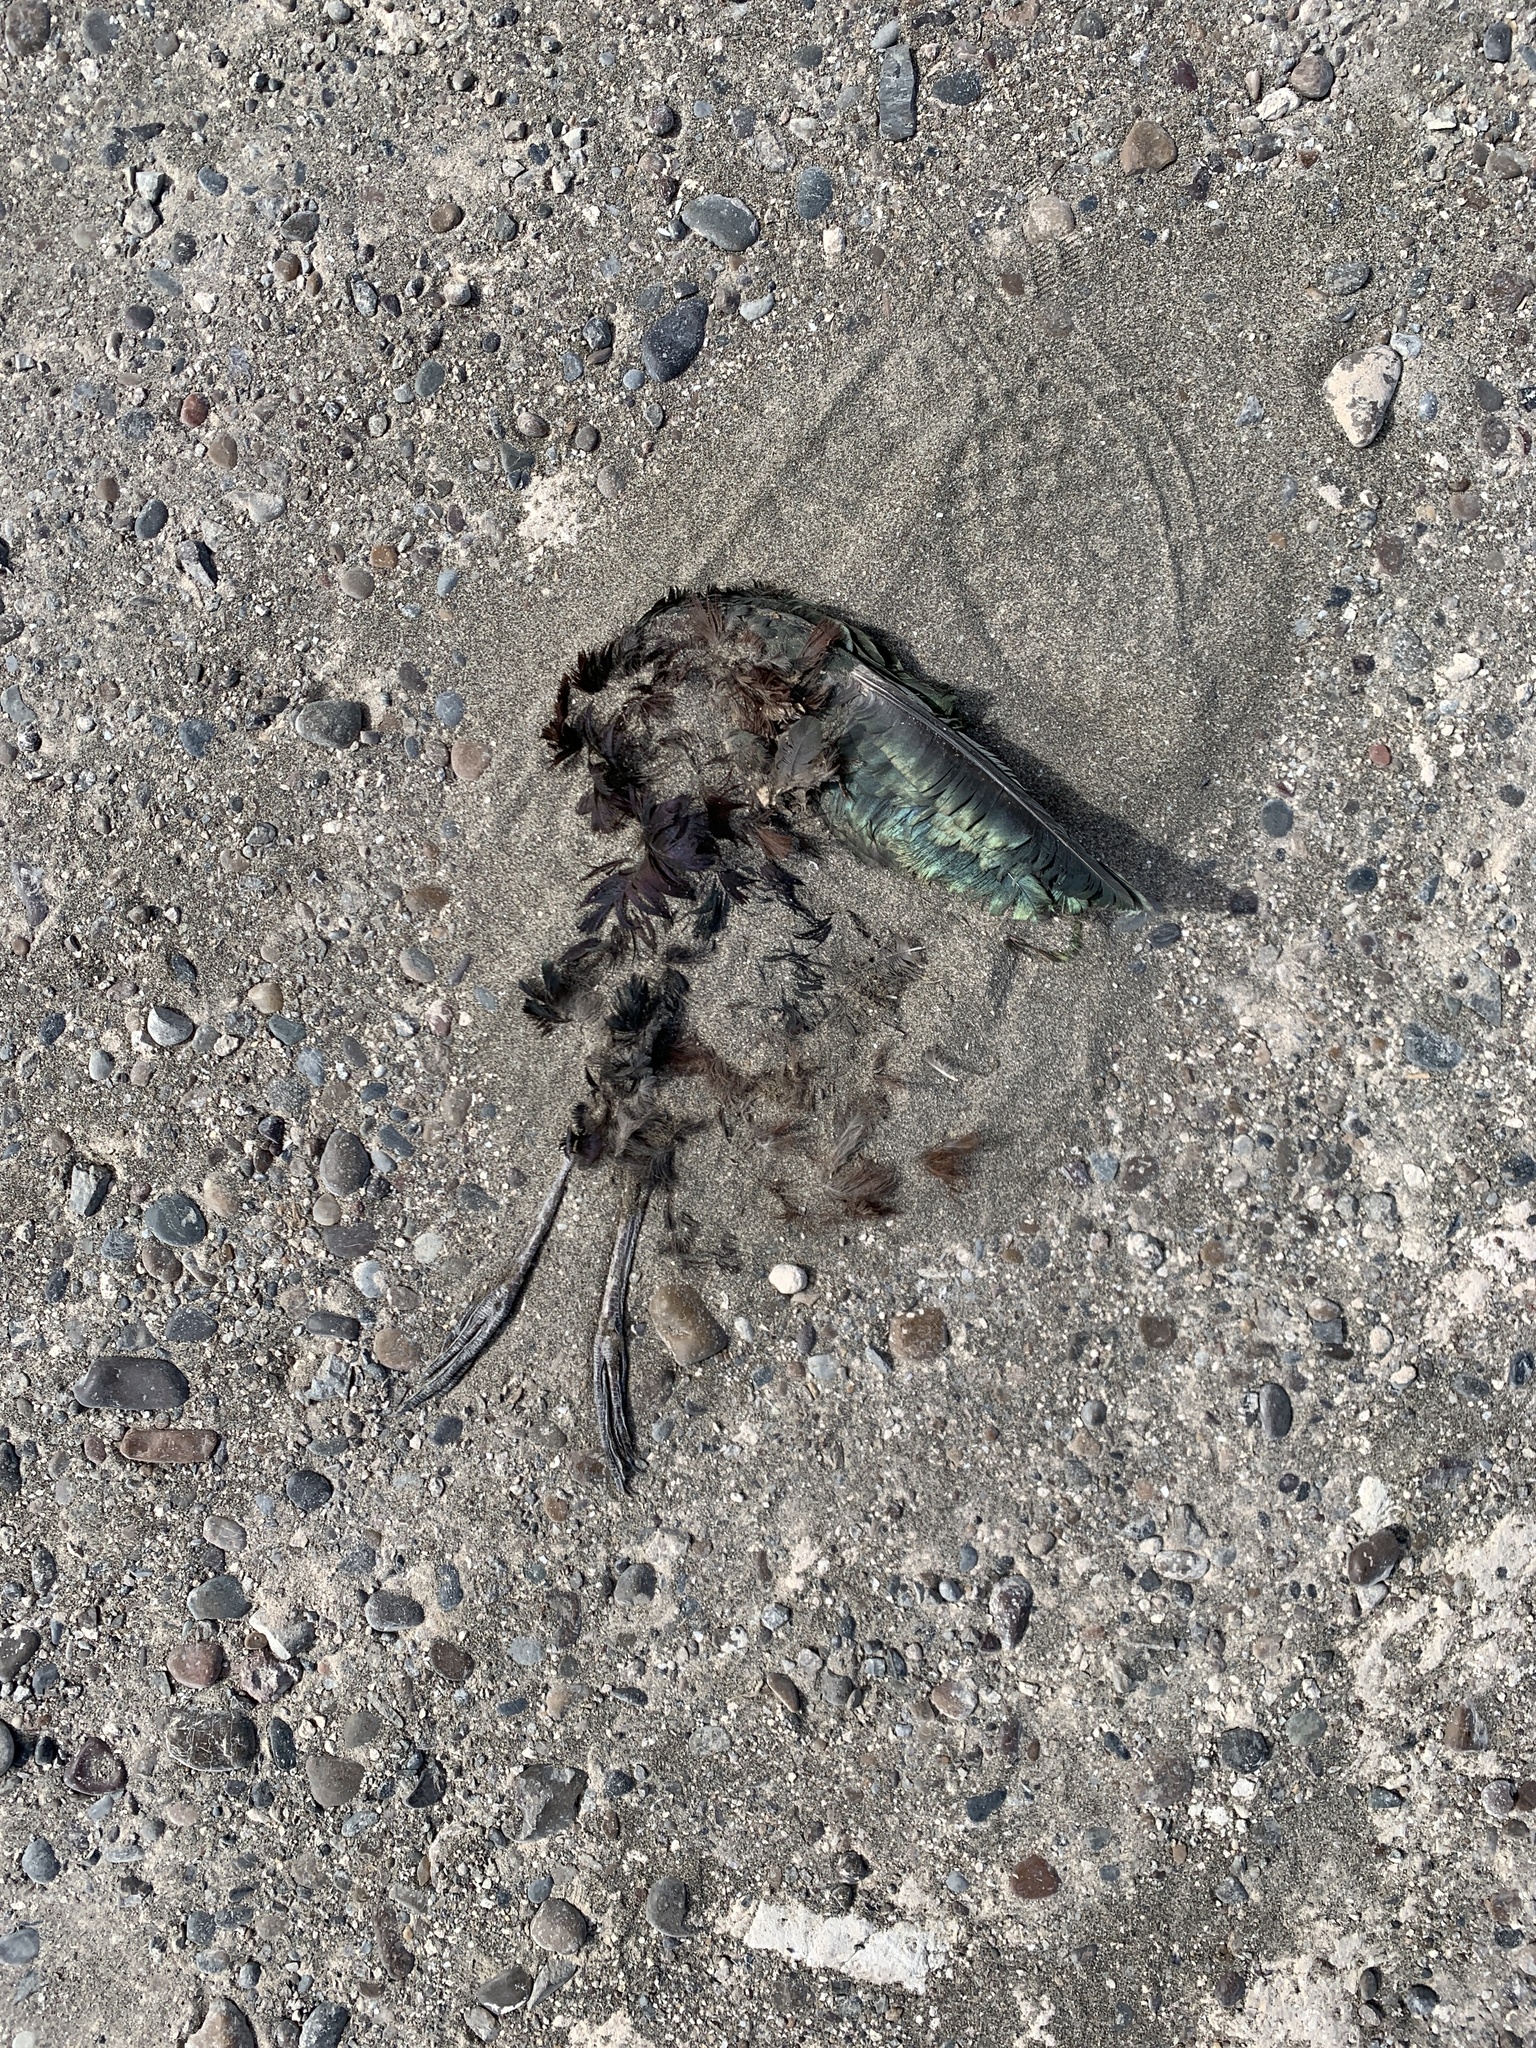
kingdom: Animalia
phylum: Chordata
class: Aves
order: Pelecaniformes
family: Threskiornithidae
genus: Plegadis
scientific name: Plegadis chihi
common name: White-faced ibis
